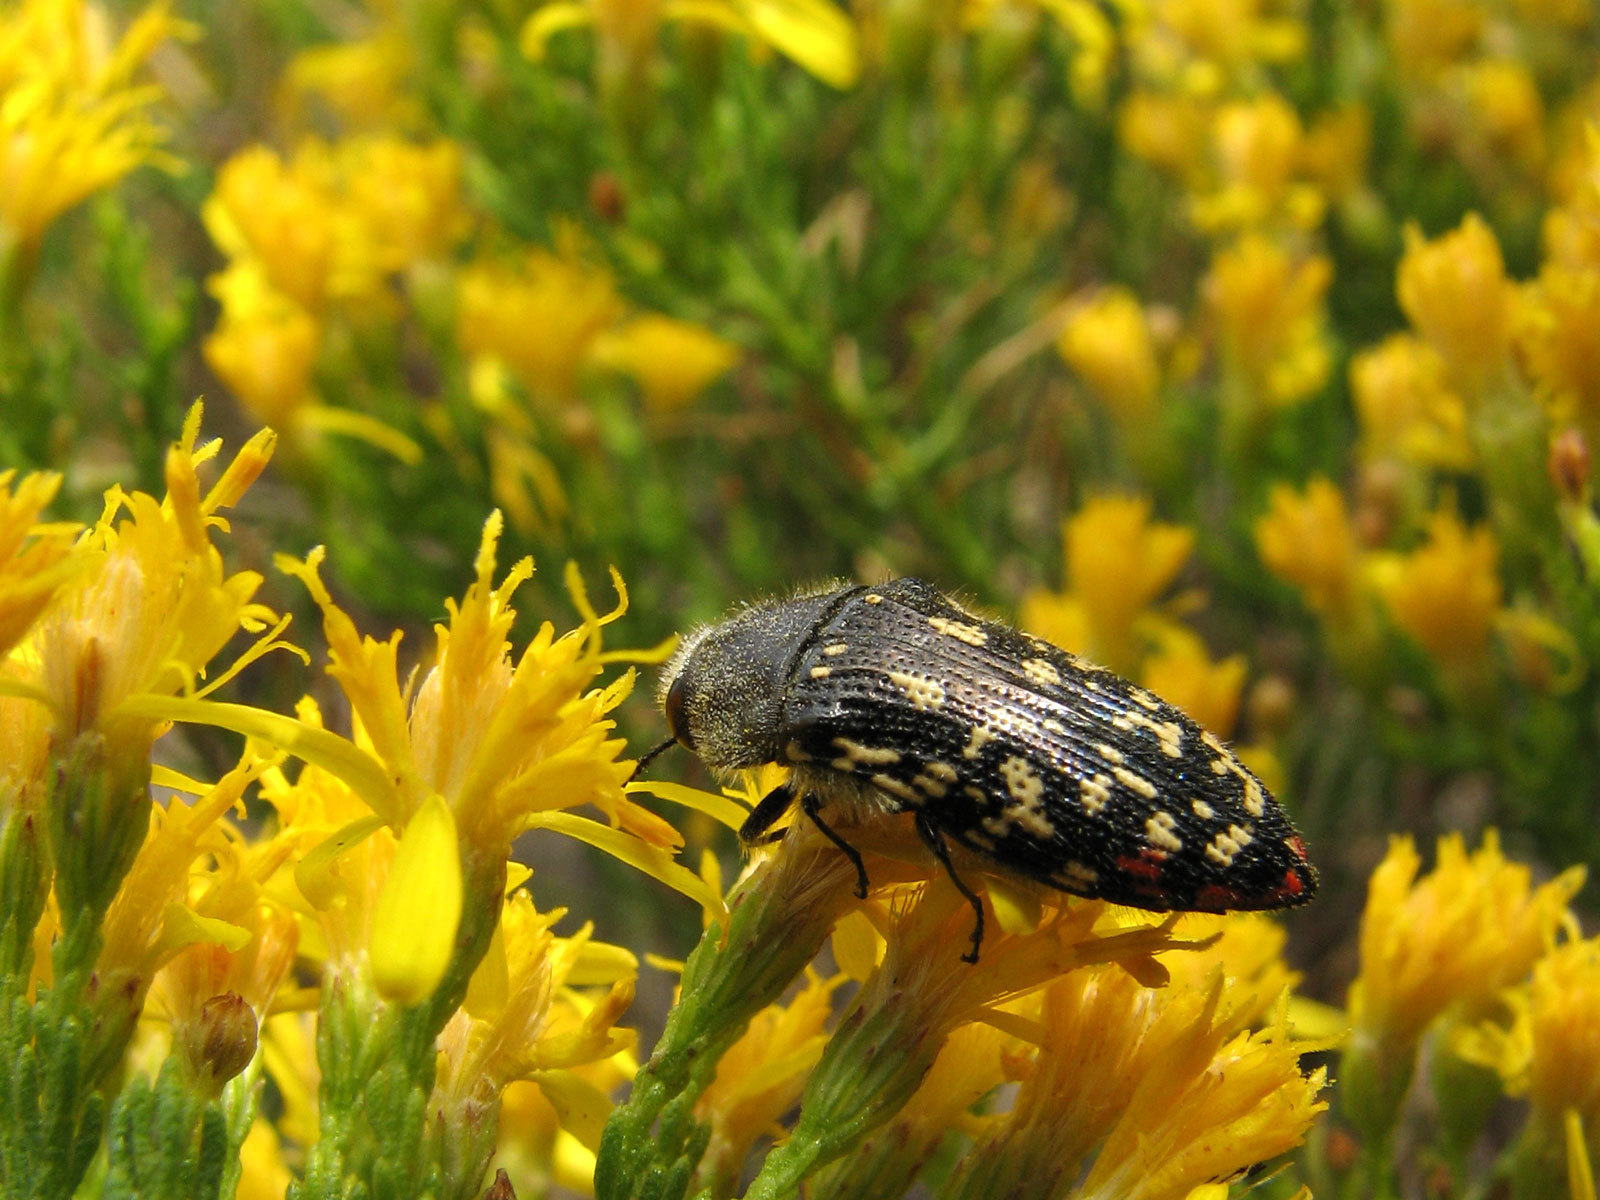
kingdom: Animalia
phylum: Arthropoda
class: Insecta
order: Coleoptera
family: Buprestidae
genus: Acmaeodera
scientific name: Acmaeodera rubronotata
